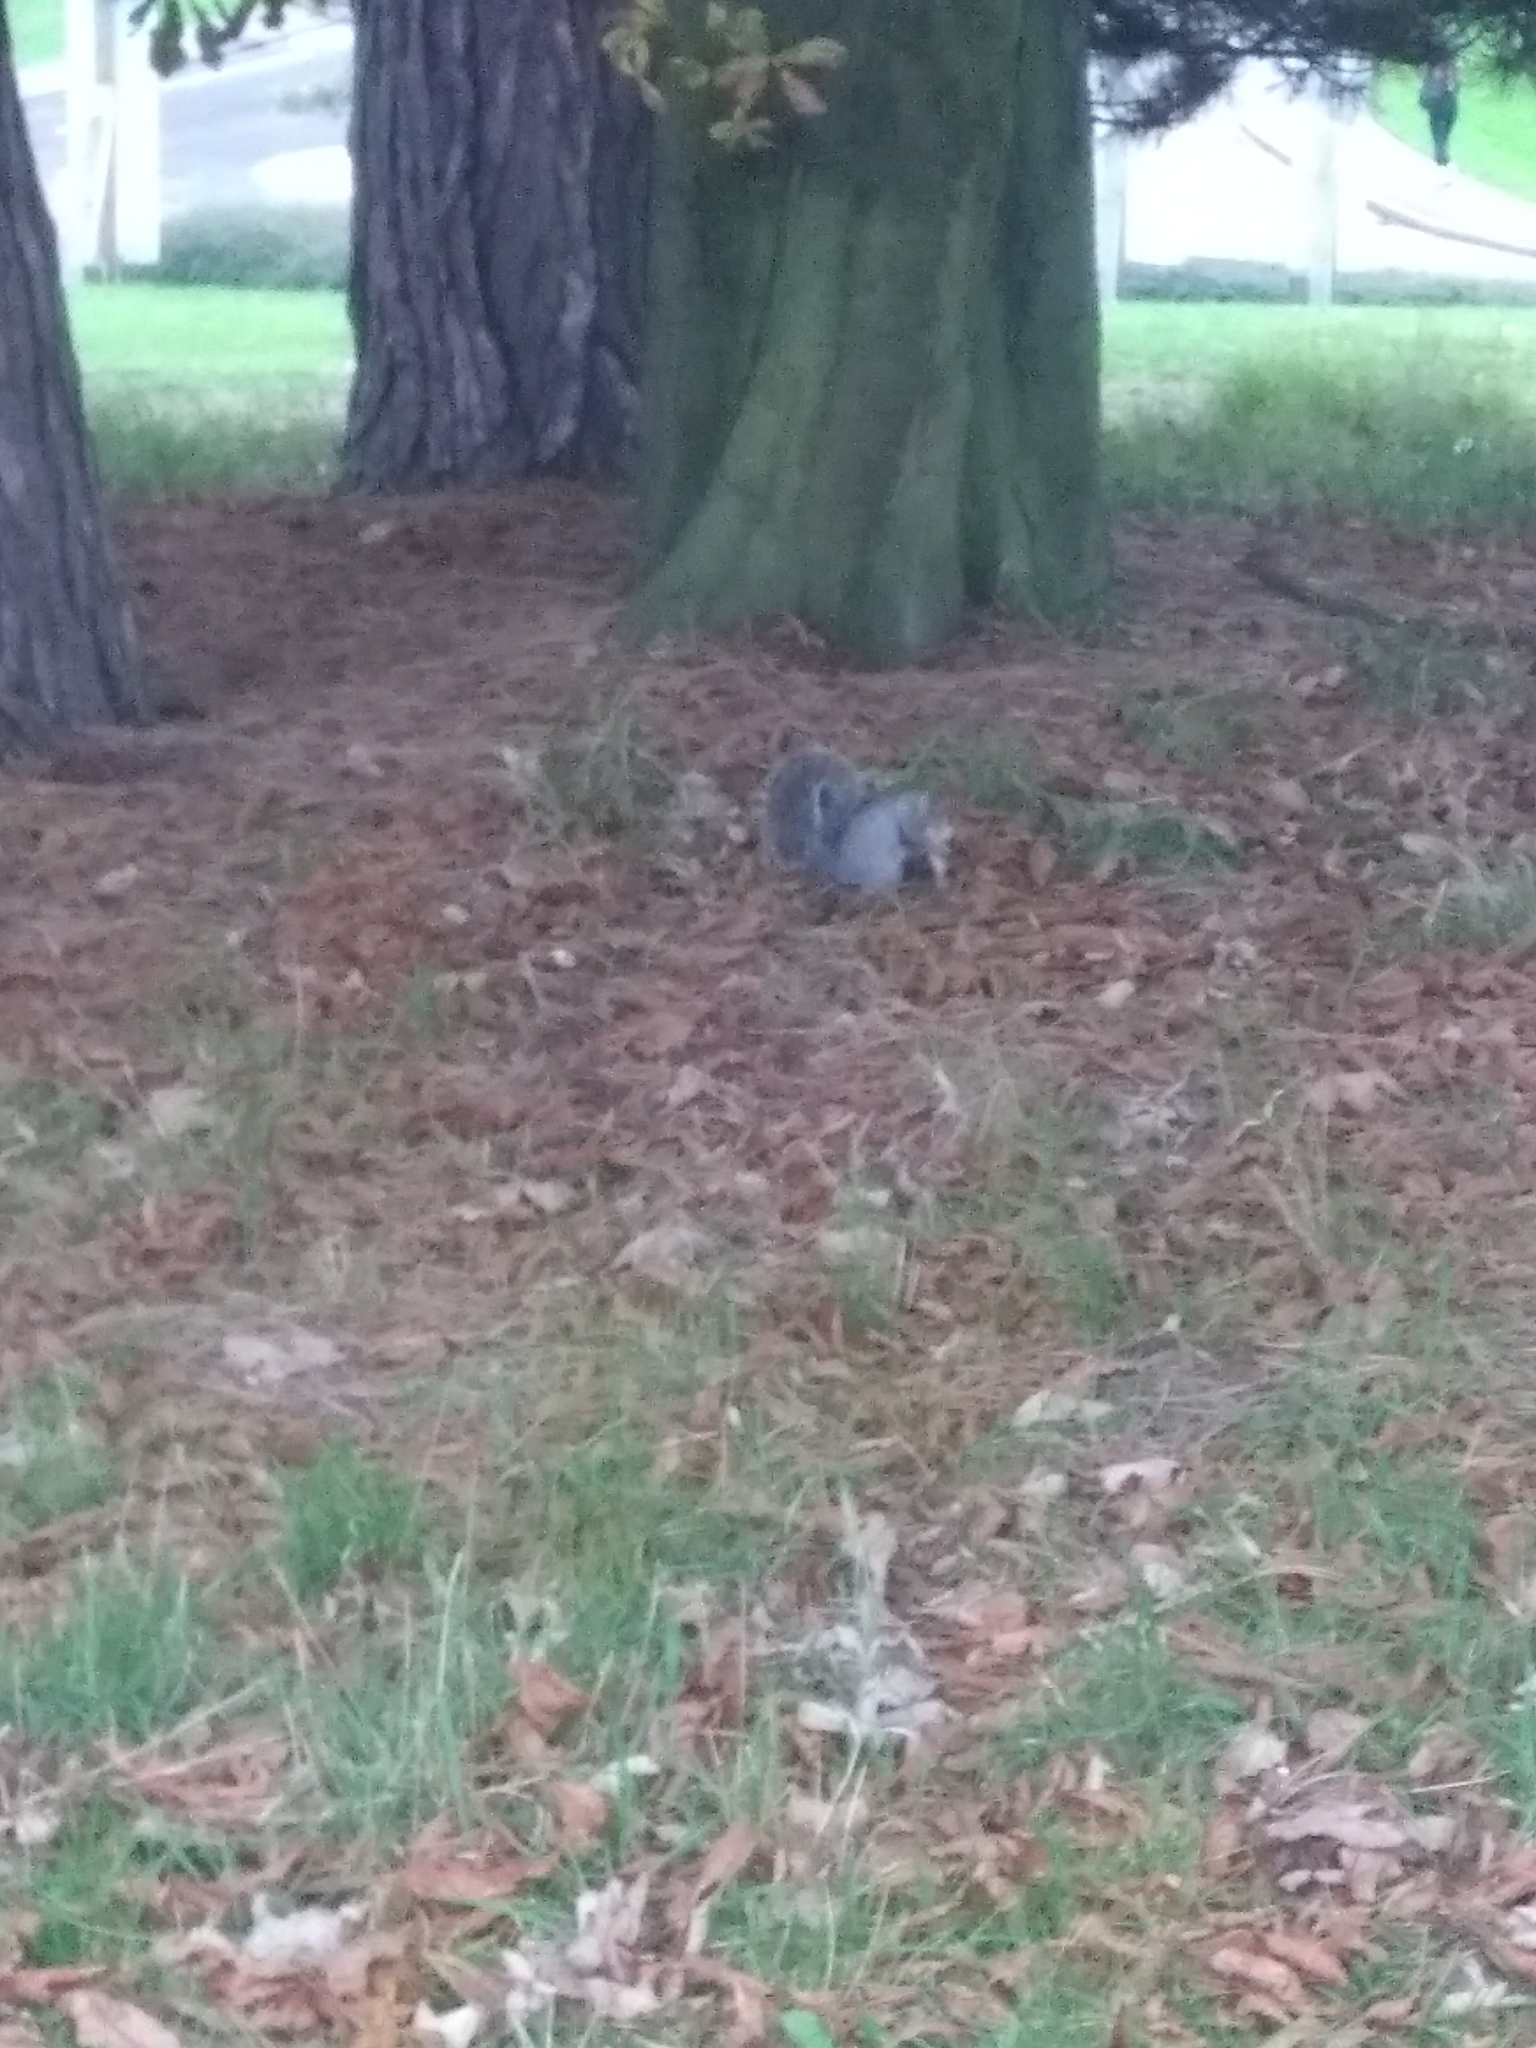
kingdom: Animalia
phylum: Chordata
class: Mammalia
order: Rodentia
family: Sciuridae
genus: Sciurus
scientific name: Sciurus carolinensis
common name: Eastern gray squirrel
